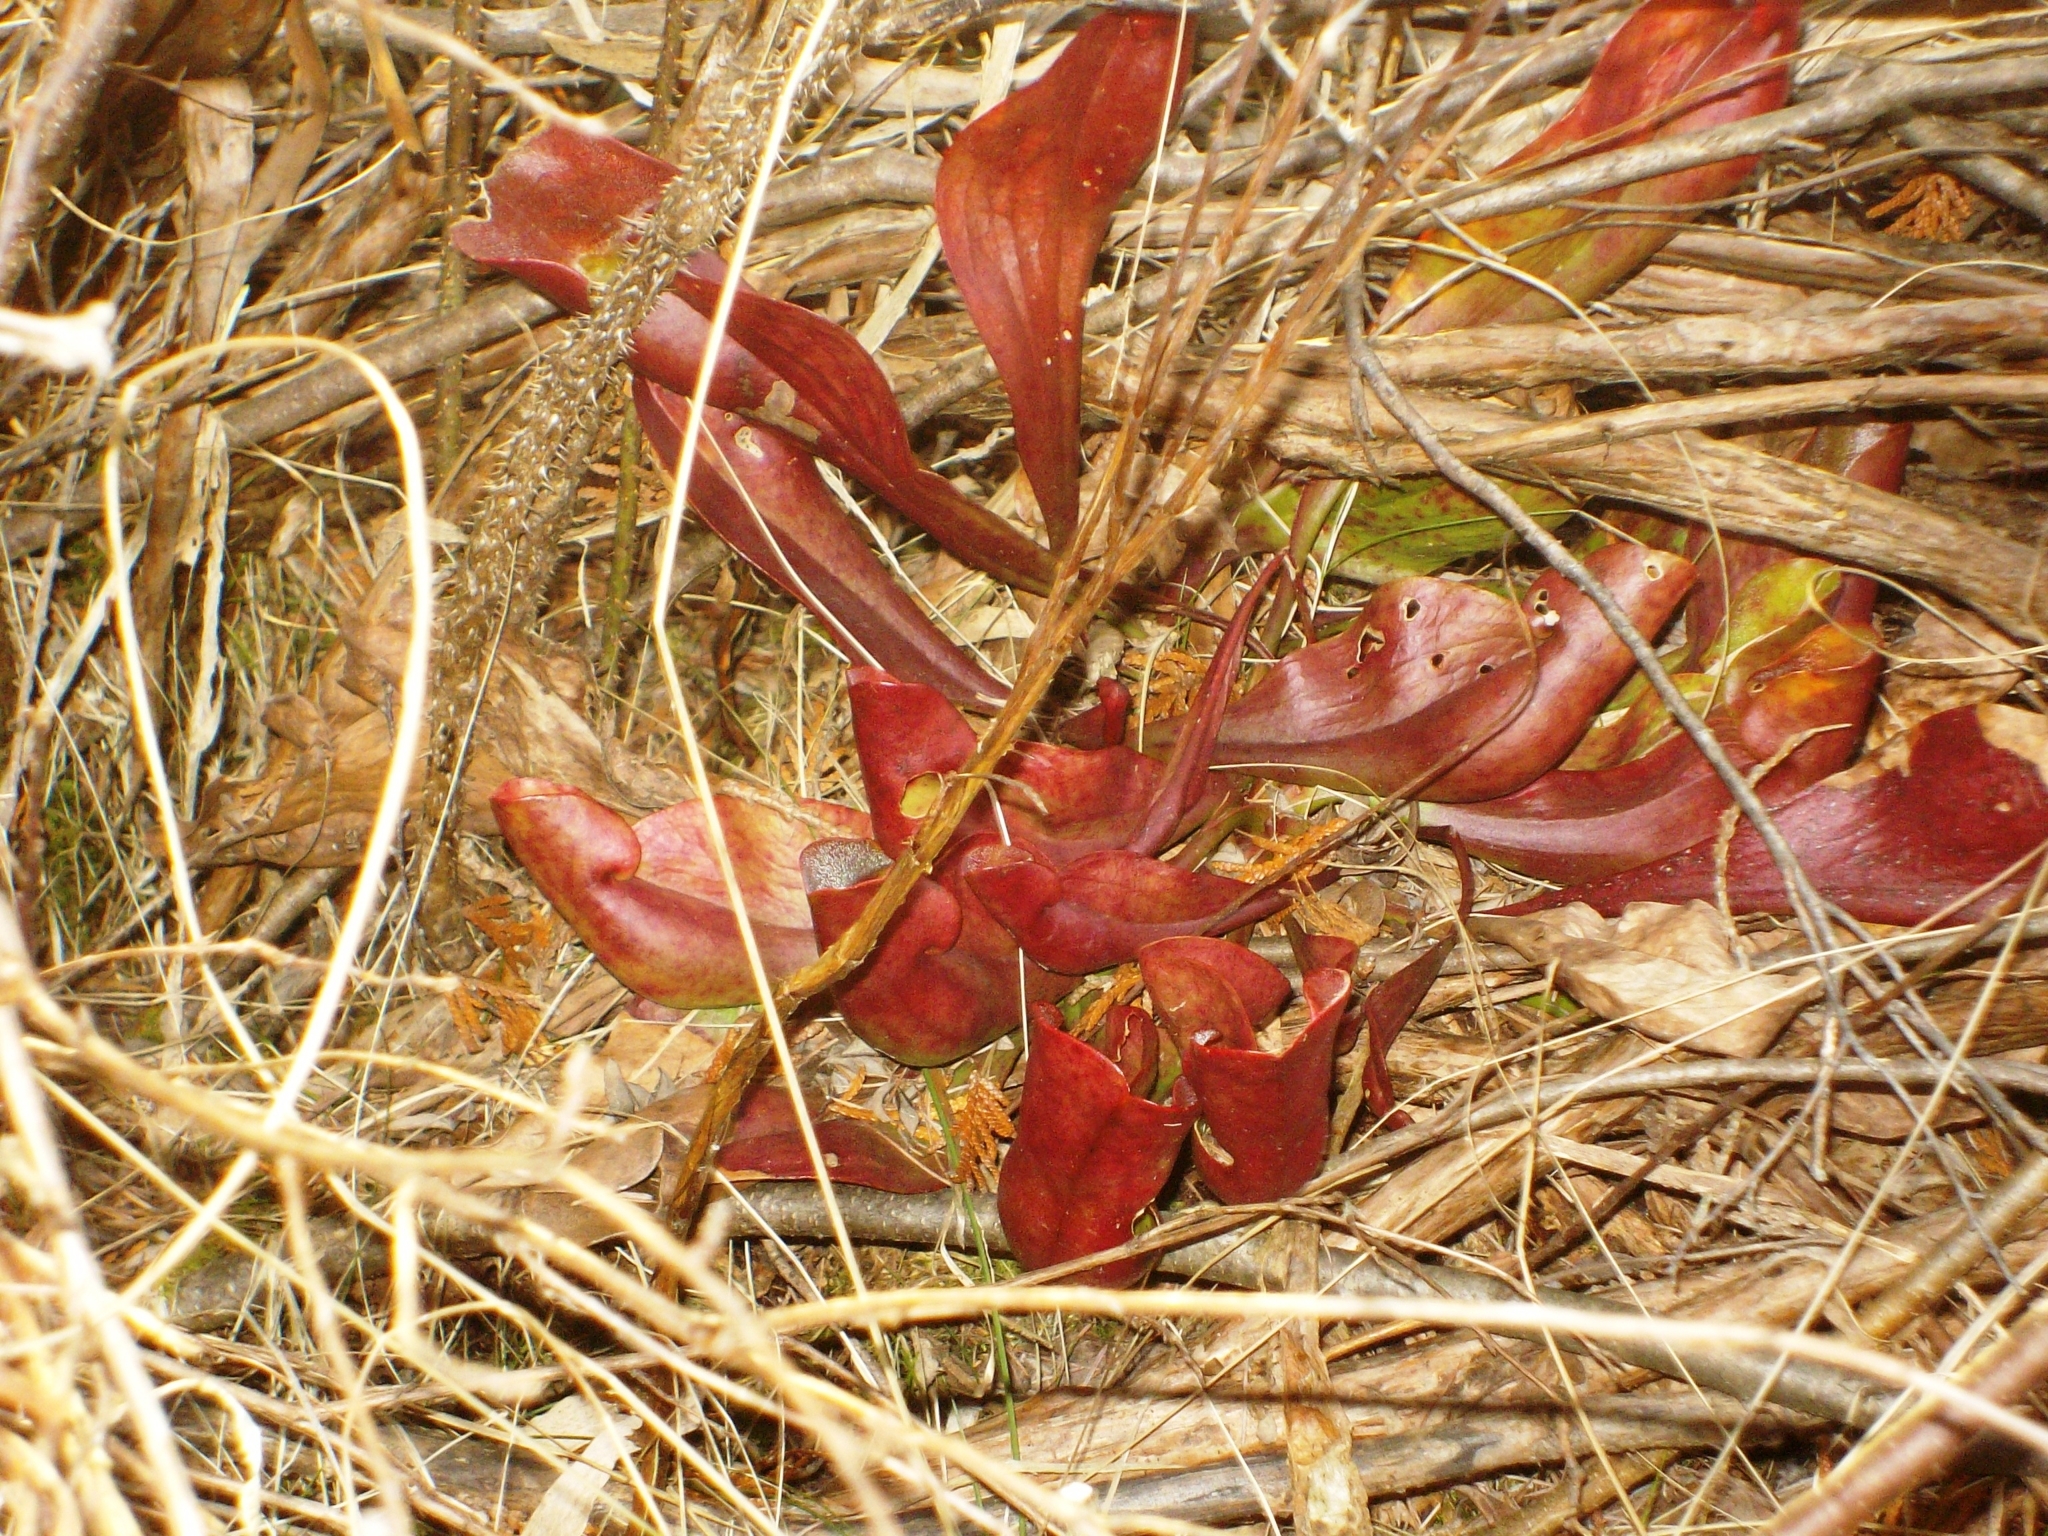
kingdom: Plantae
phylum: Tracheophyta
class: Magnoliopsida
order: Ericales
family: Sarraceniaceae
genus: Sarracenia
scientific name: Sarracenia purpurea
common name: Pitcherplant
